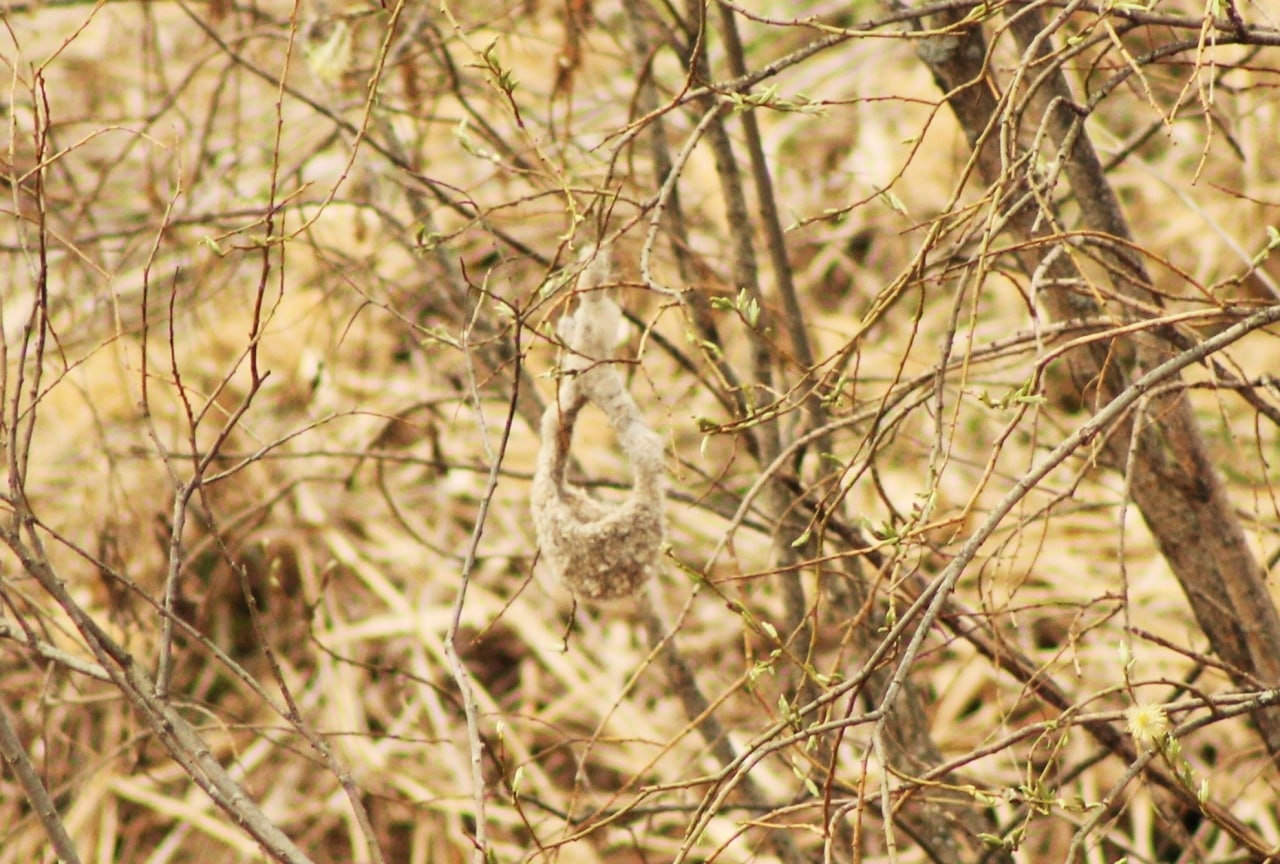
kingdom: Animalia
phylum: Chordata
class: Aves
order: Passeriformes
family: Remizidae
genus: Remiz
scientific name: Remiz pendulinus
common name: Eurasian penduline tit
